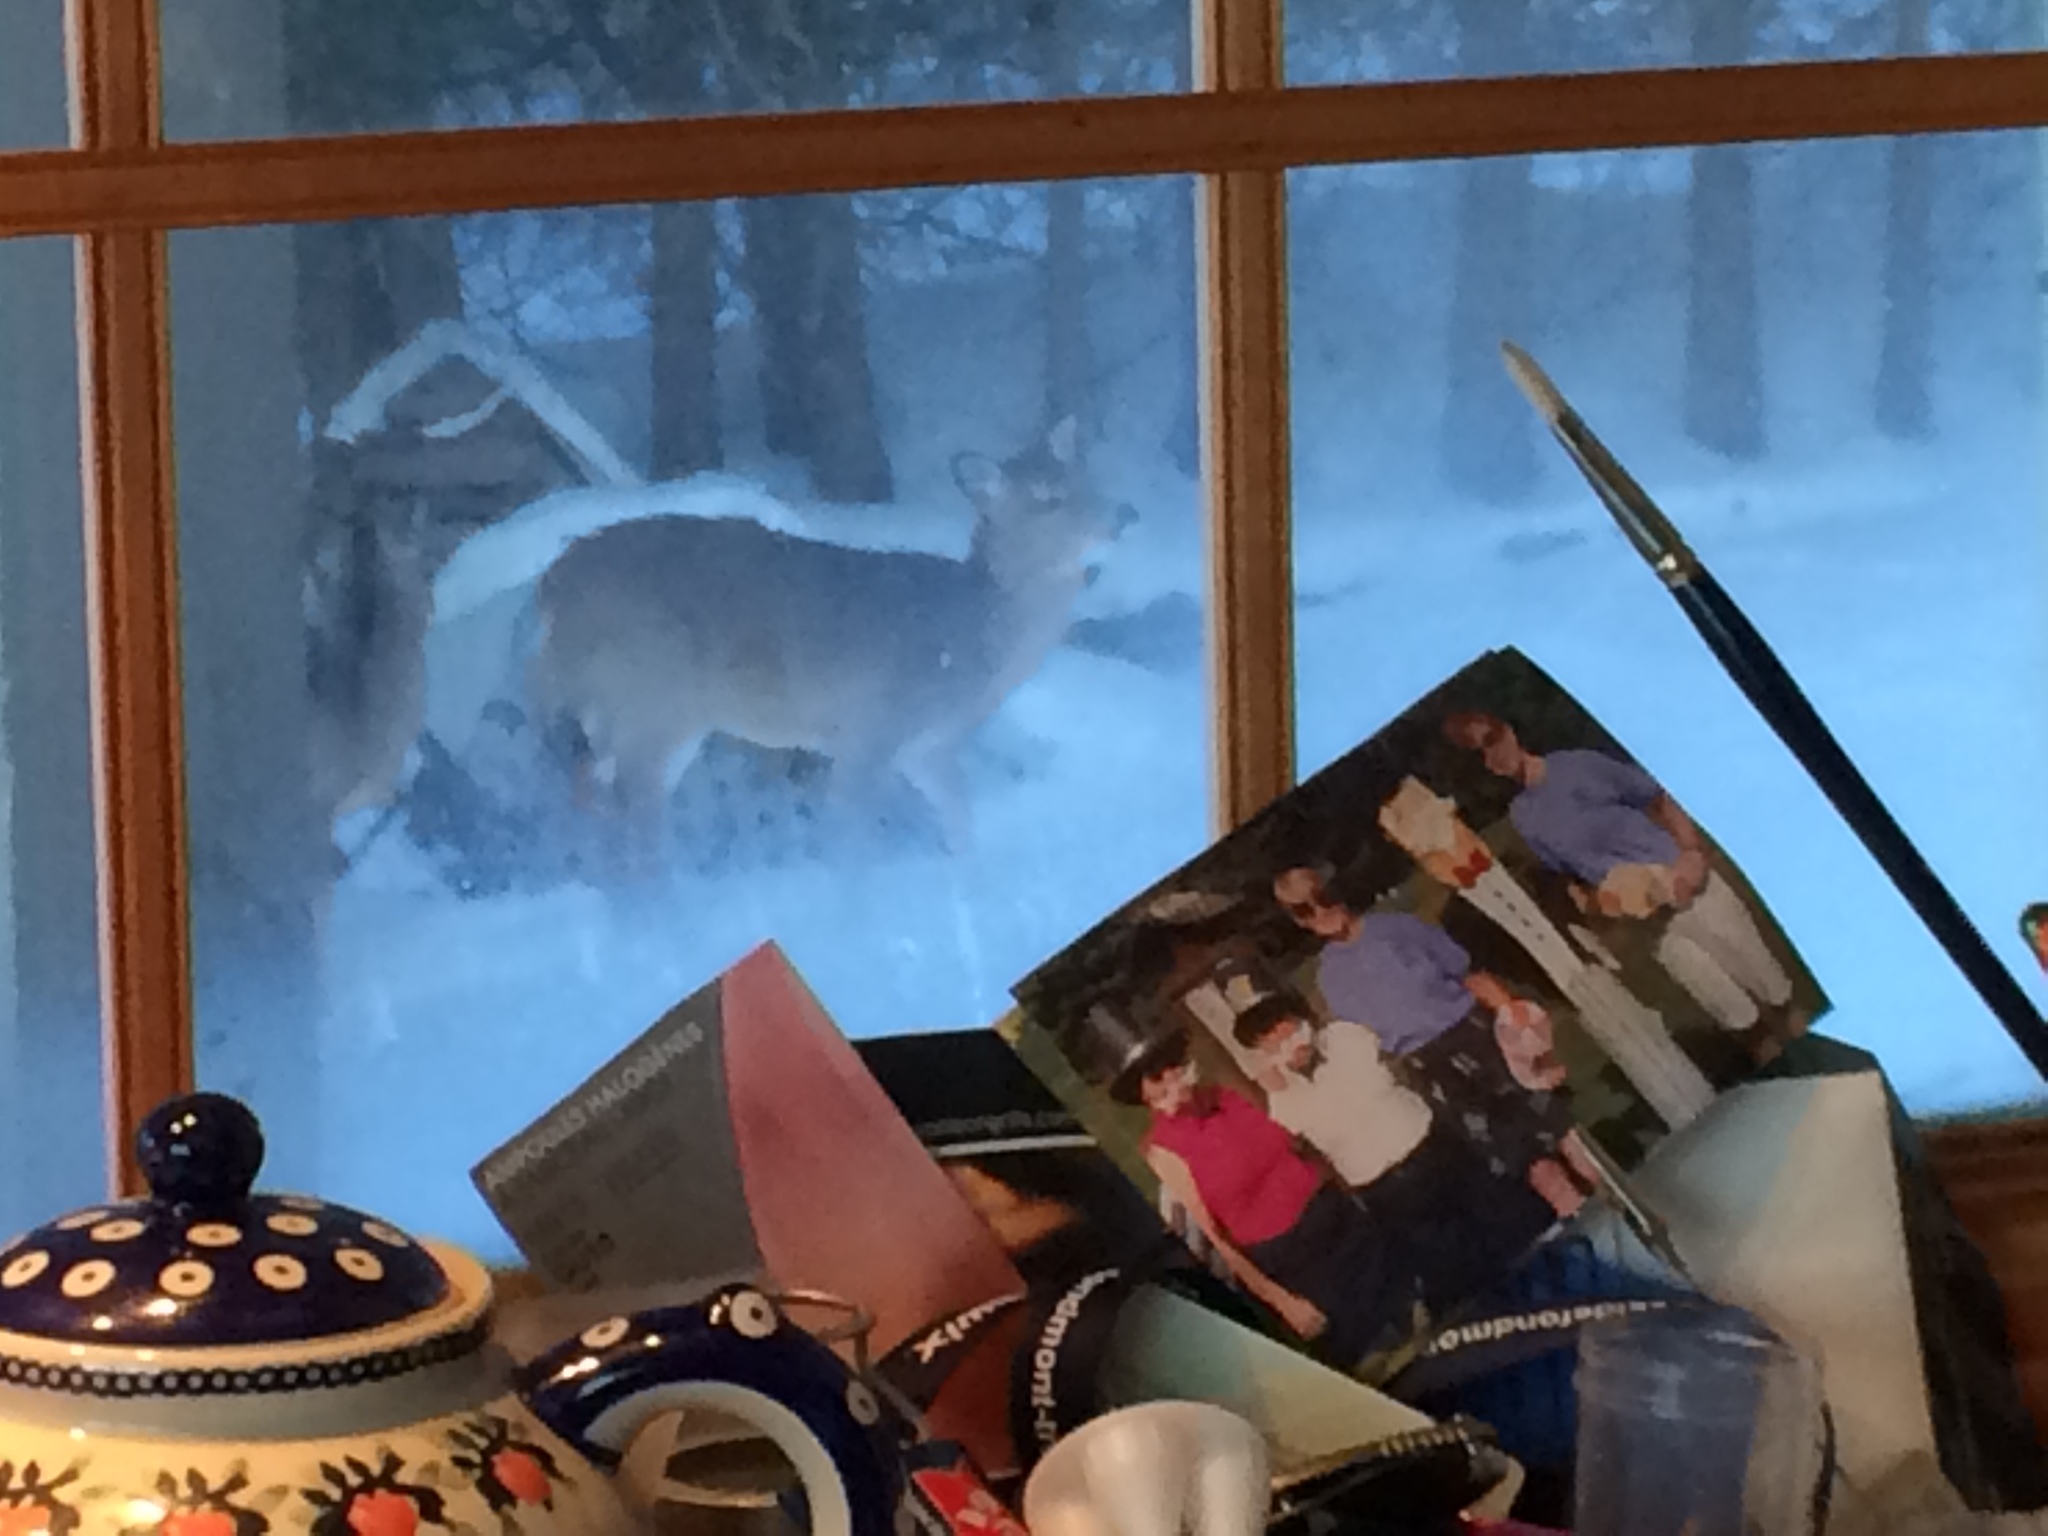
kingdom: Animalia
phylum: Chordata
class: Mammalia
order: Artiodactyla
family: Cervidae
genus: Odocoileus
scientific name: Odocoileus virginianus
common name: White-tailed deer
